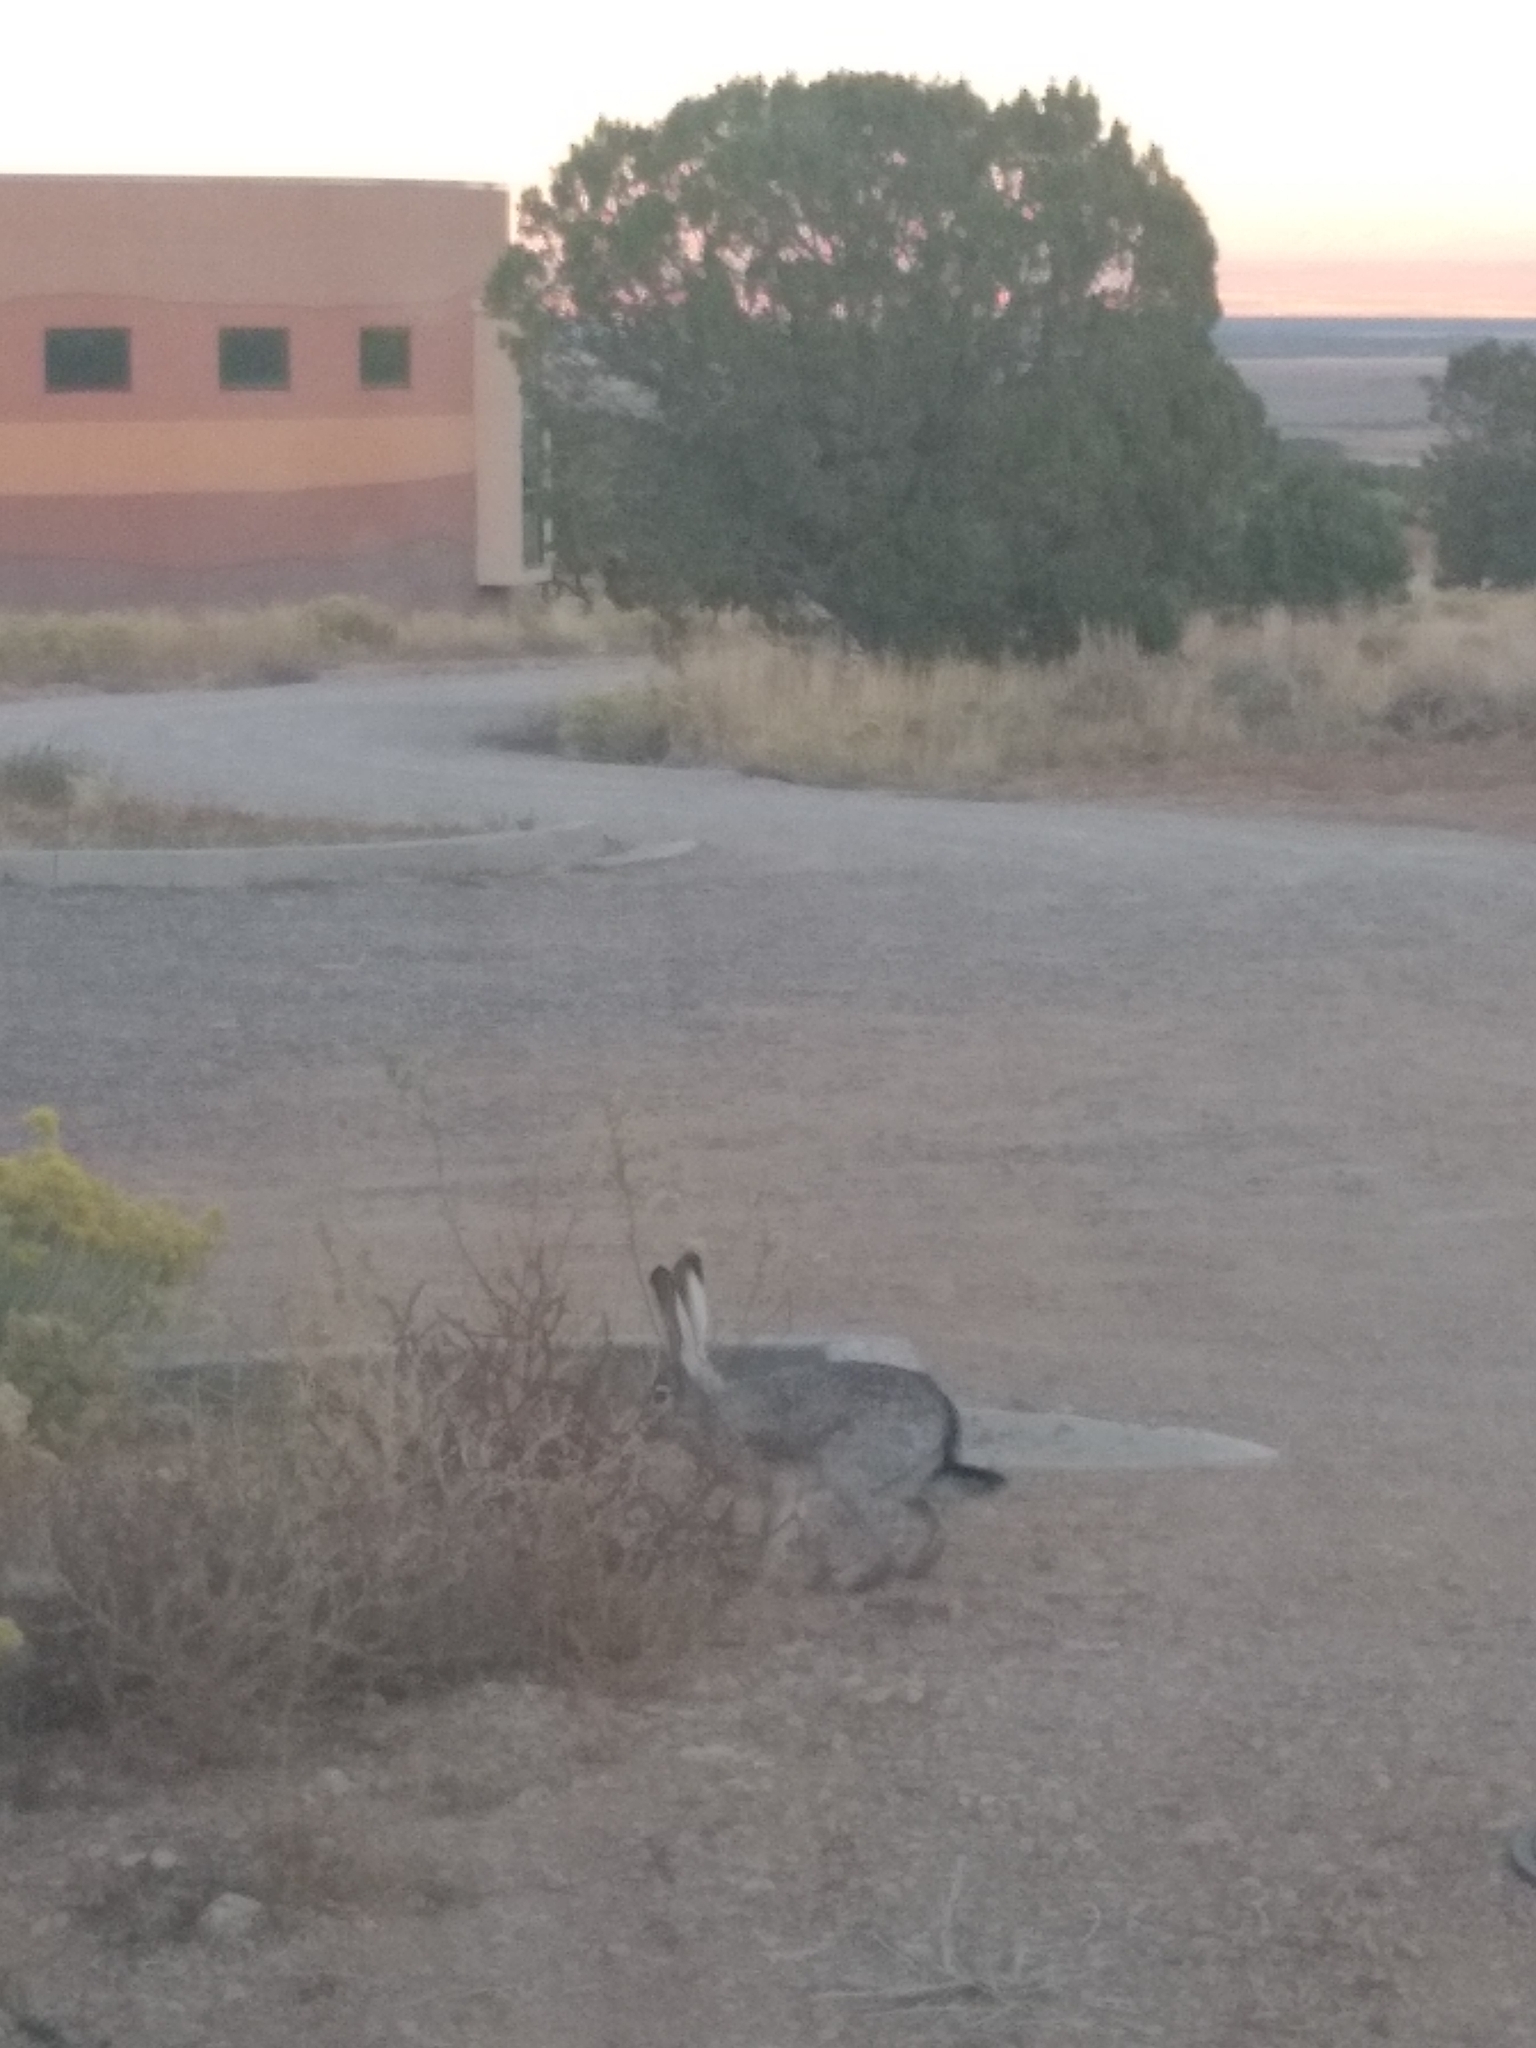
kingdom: Animalia
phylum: Chordata
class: Mammalia
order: Lagomorpha
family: Leporidae
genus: Lepus
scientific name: Lepus californicus
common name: Black-tailed jackrabbit
